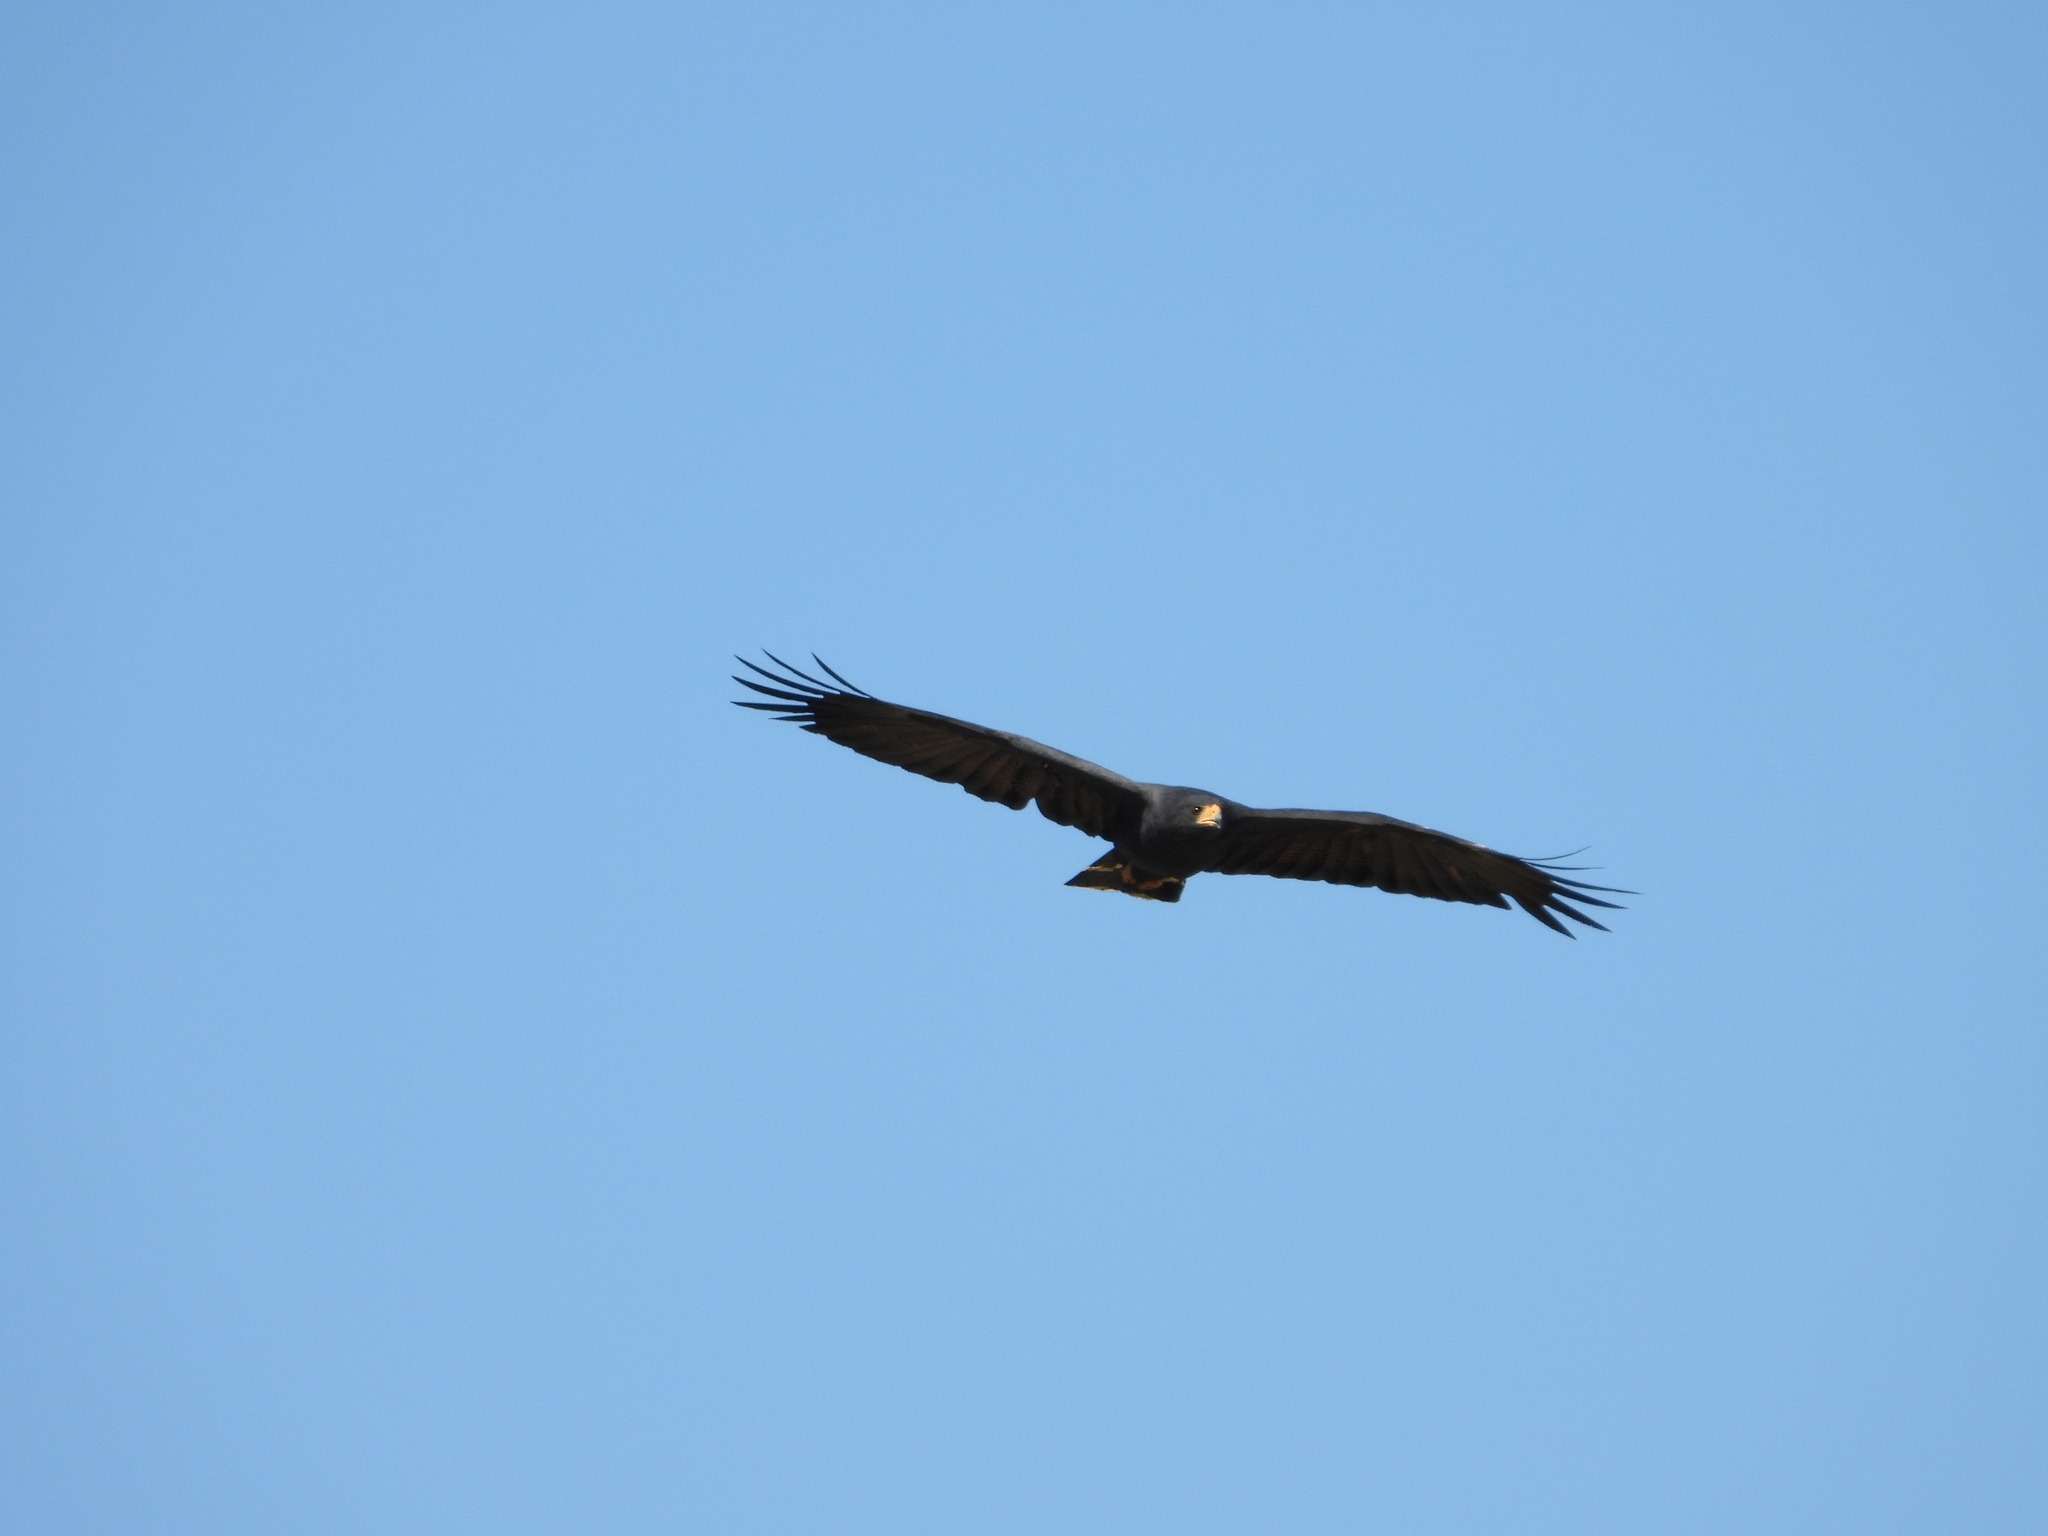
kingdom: Animalia
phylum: Chordata
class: Aves
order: Accipitriformes
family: Accipitridae
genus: Buteogallus
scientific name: Buteogallus anthracinus
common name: Common black hawk
